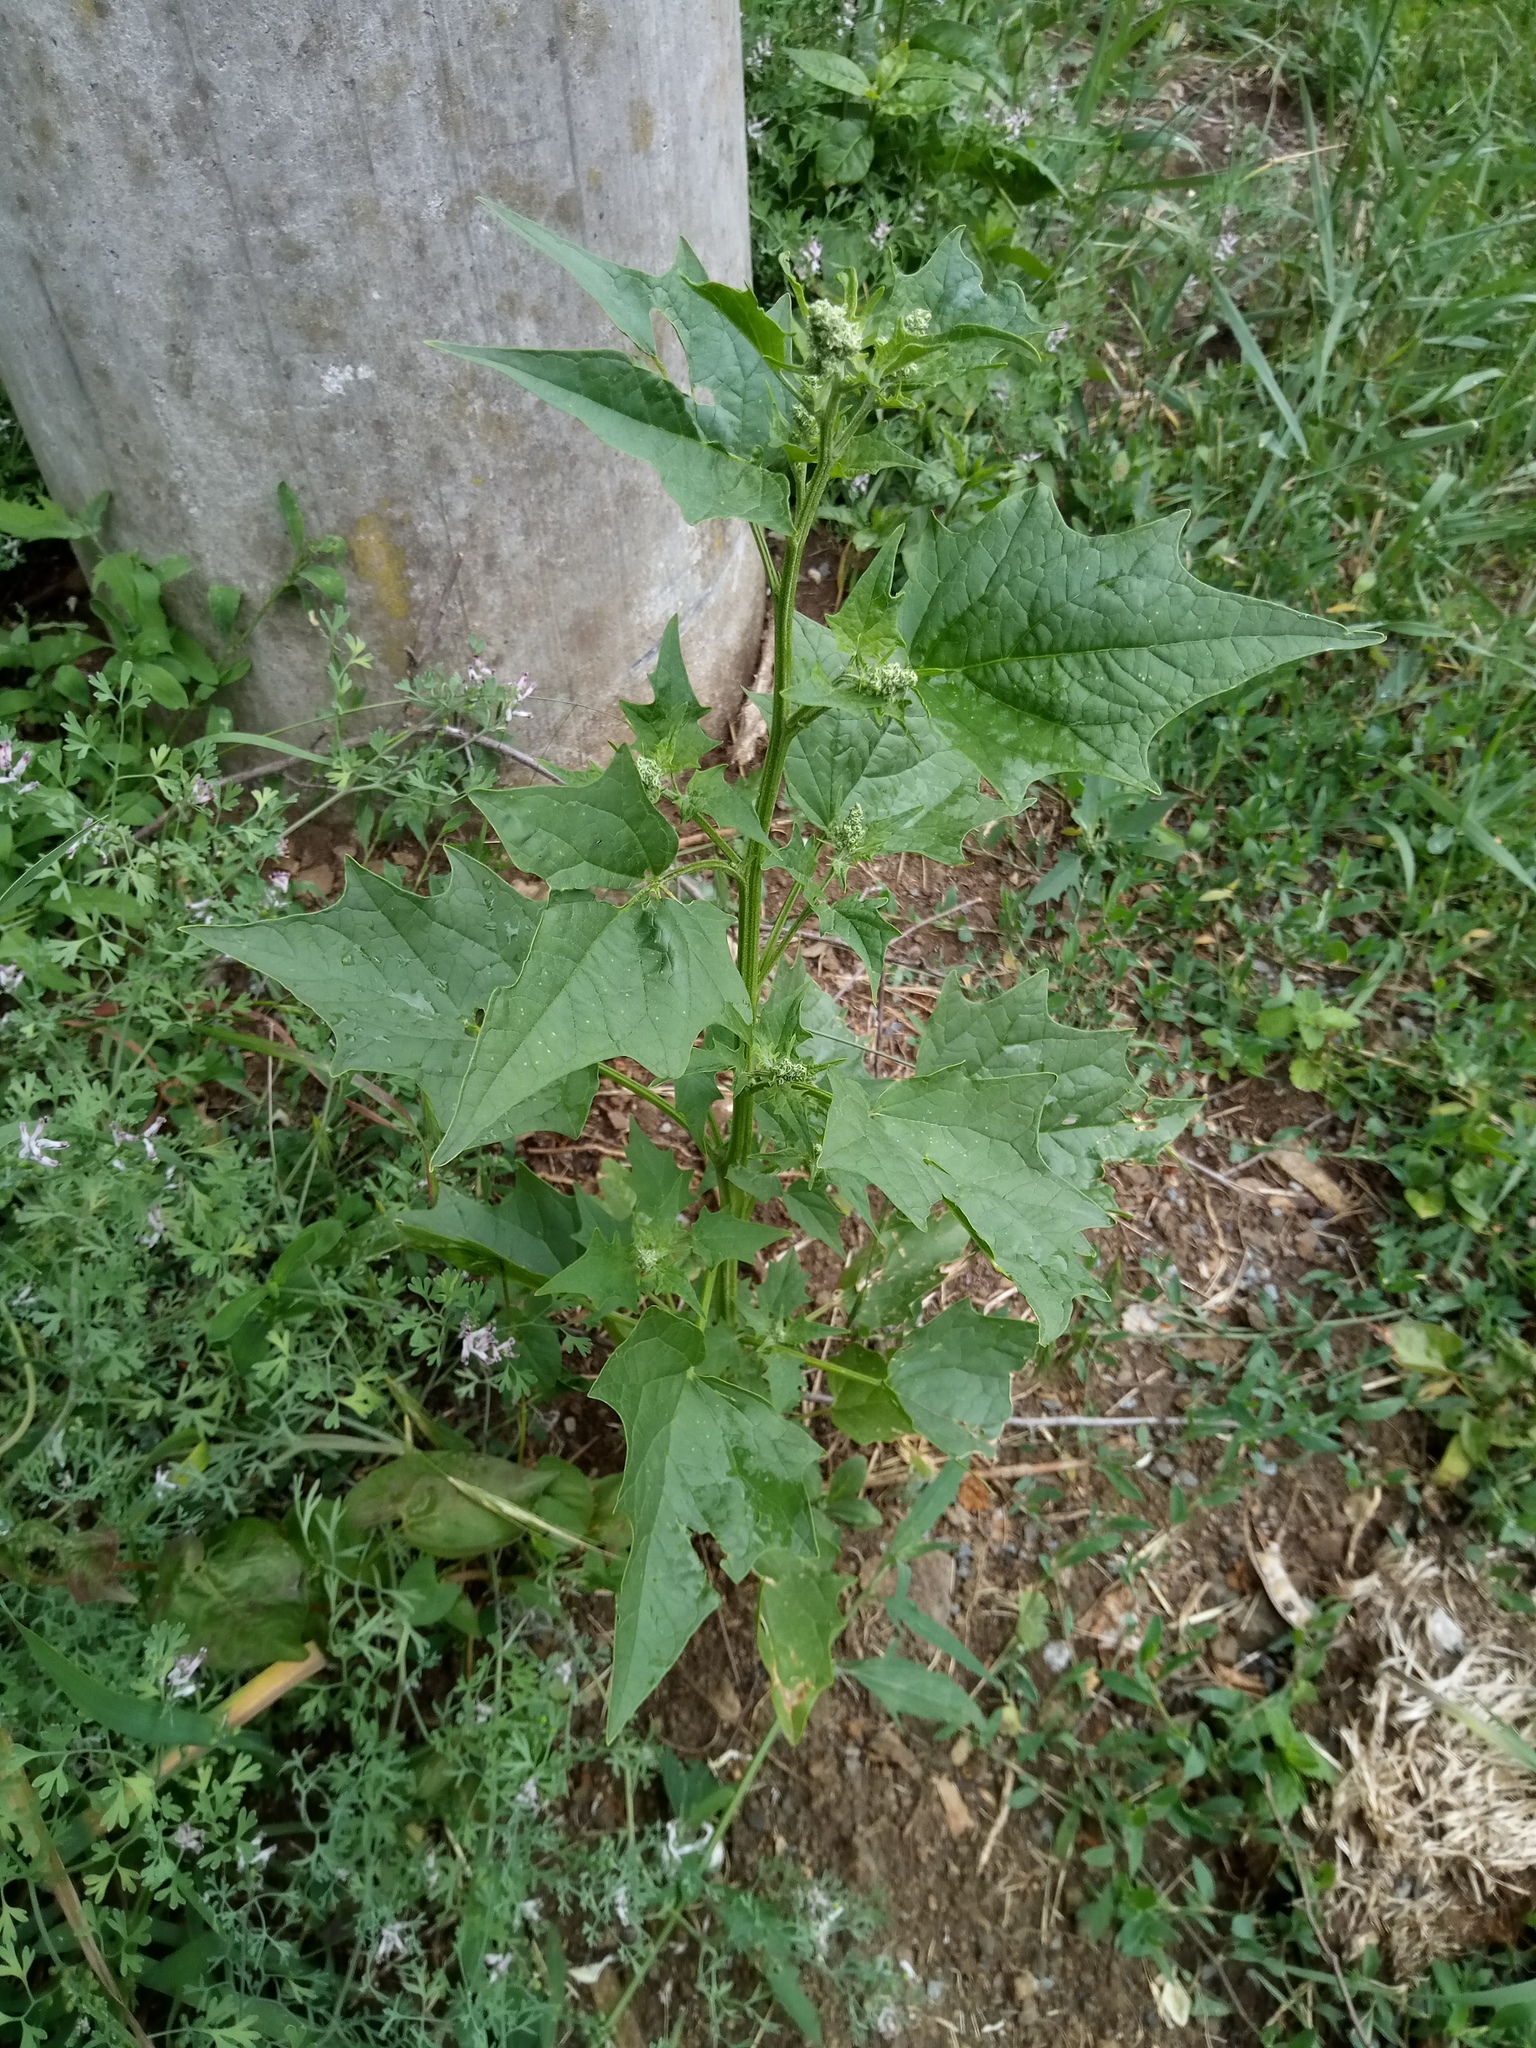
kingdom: Plantae
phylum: Tracheophyta
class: Magnoliopsida
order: Caryophyllales
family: Amaranthaceae
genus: Chenopodiastrum
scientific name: Chenopodiastrum hybridum
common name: Mapleleaf goosefoot
